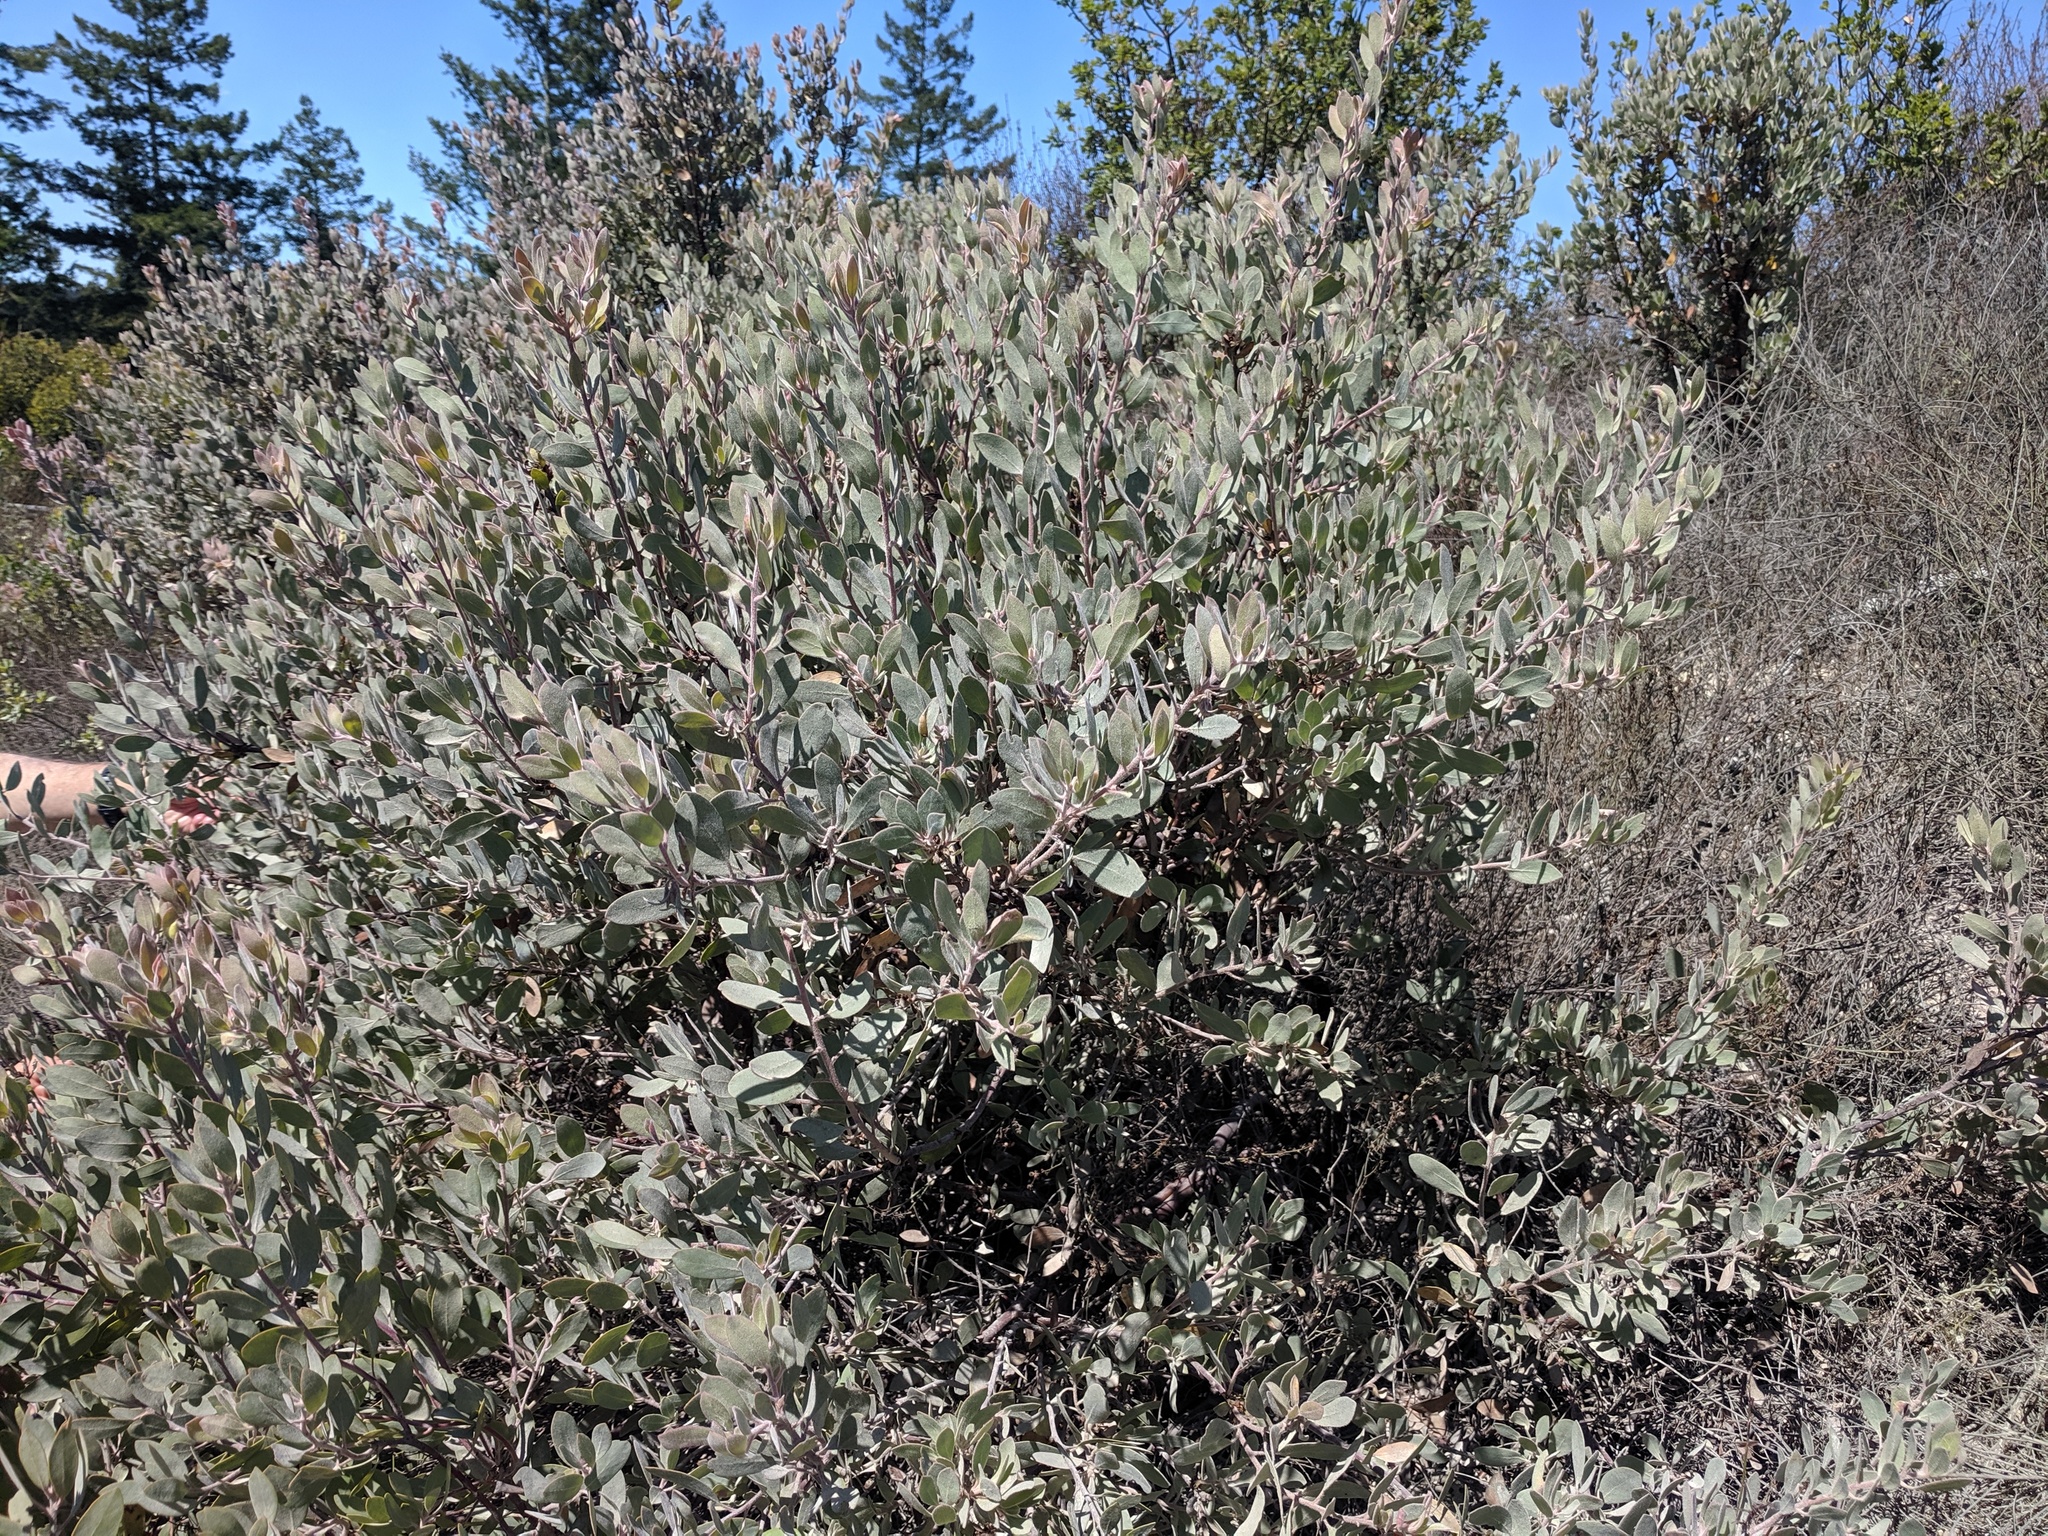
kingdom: Plantae
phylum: Tracheophyta
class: Magnoliopsida
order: Ericales
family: Ericaceae
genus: Arctostaphylos
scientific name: Arctostaphylos silvicola
